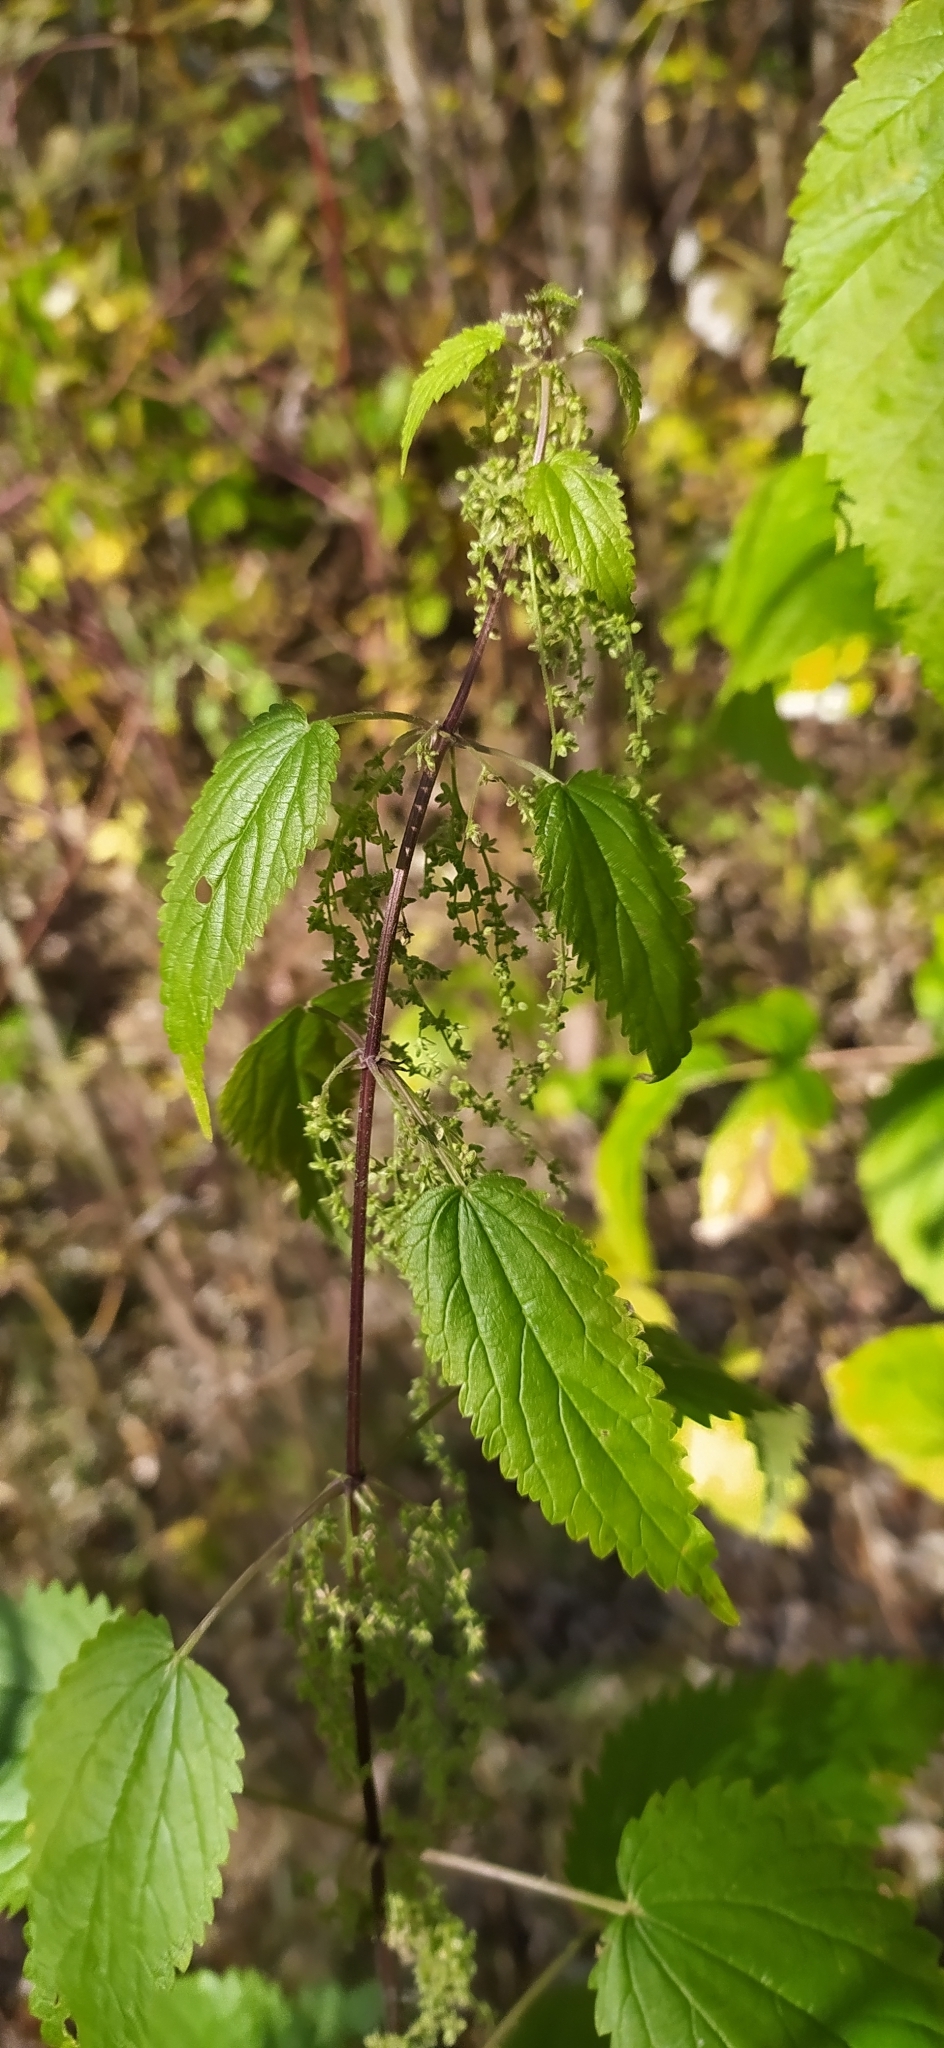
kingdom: Plantae
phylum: Tracheophyta
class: Magnoliopsida
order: Rosales
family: Urticaceae
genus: Urtica
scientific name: Urtica dioica
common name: Common nettle
